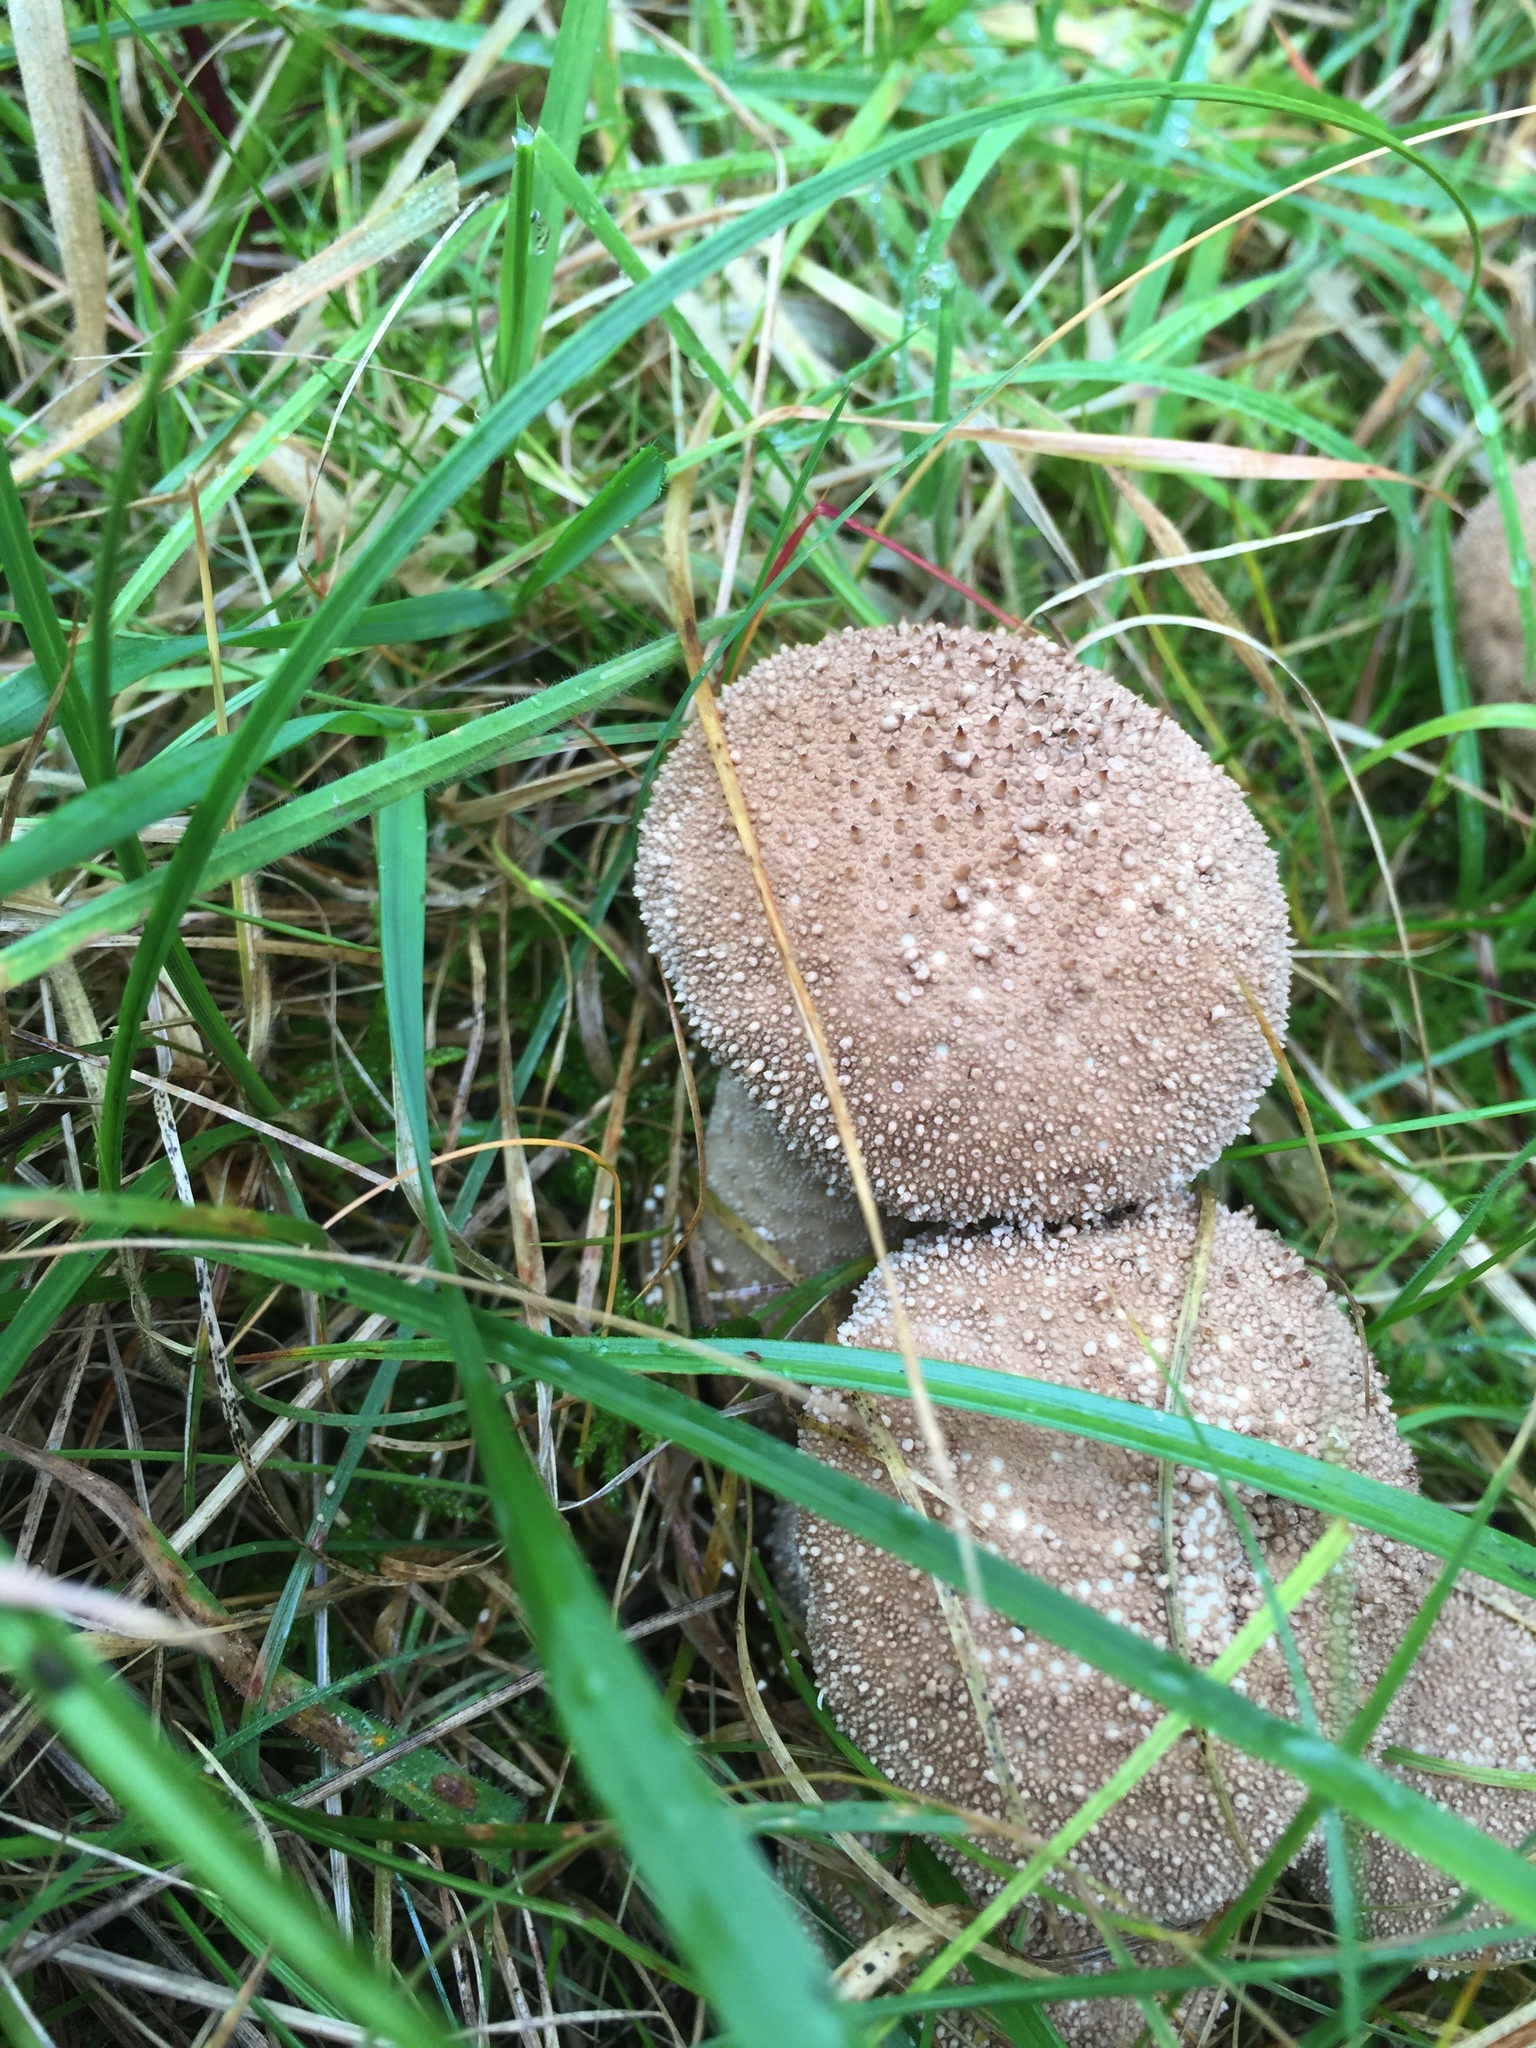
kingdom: Fungi
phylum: Basidiomycota
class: Agaricomycetes
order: Agaricales
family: Lycoperdaceae
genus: Lycoperdon
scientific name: Lycoperdon perlatum
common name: Common puffball
